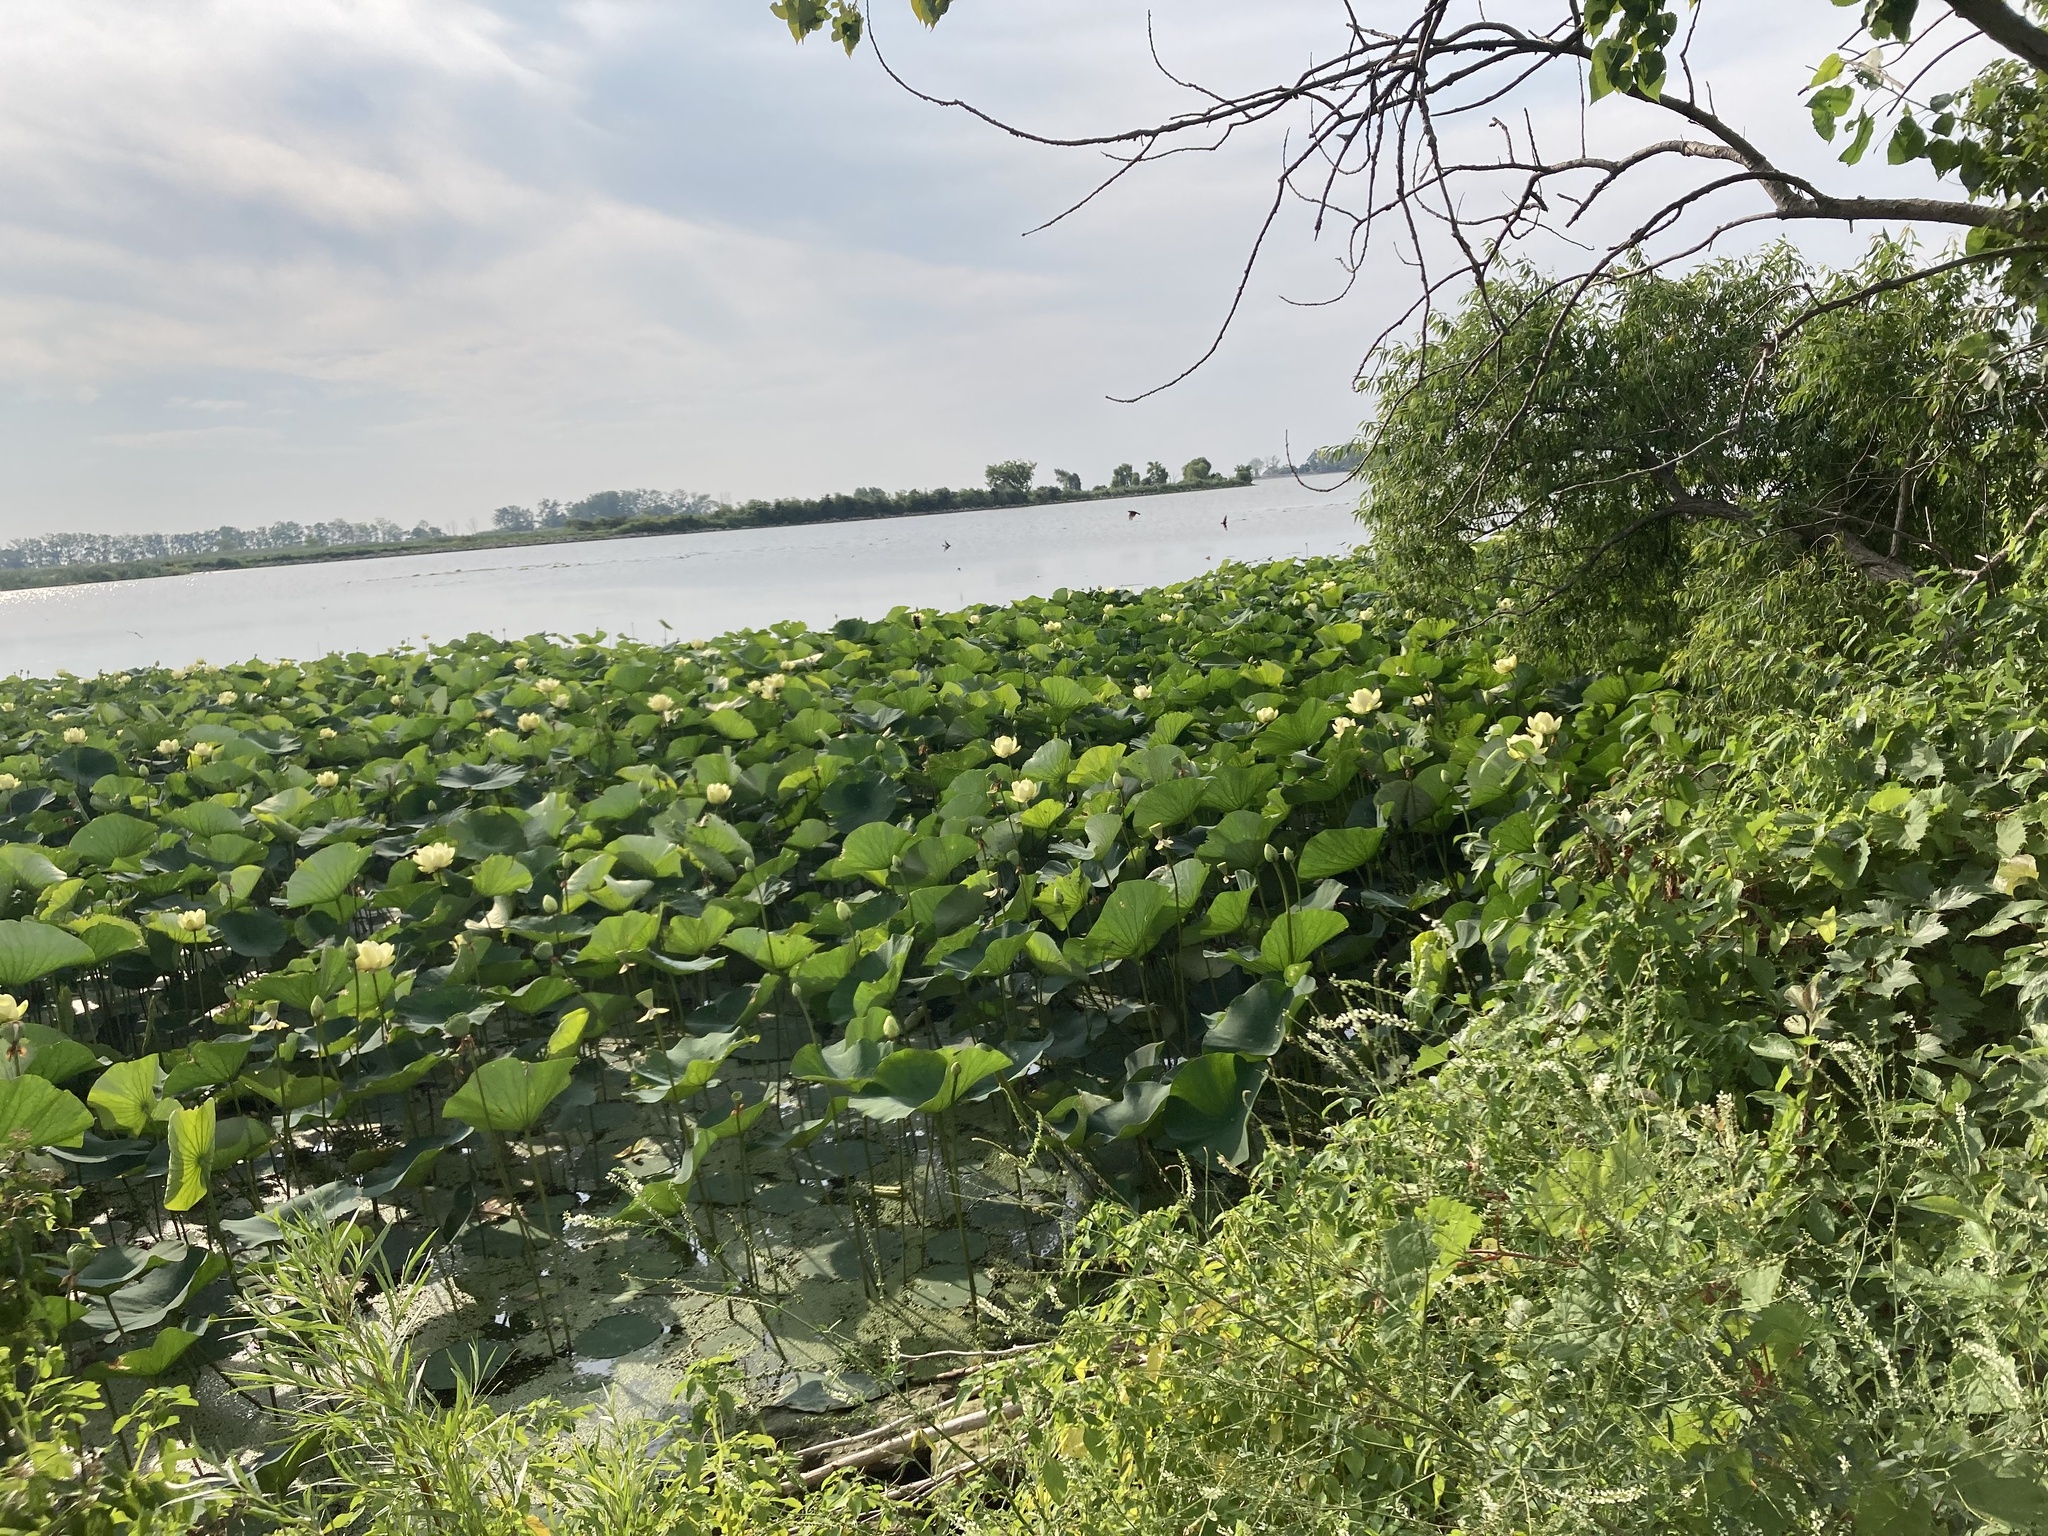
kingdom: Plantae
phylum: Tracheophyta
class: Magnoliopsida
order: Proteales
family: Nelumbonaceae
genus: Nelumbo
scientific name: Nelumbo lutea
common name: American lotus
